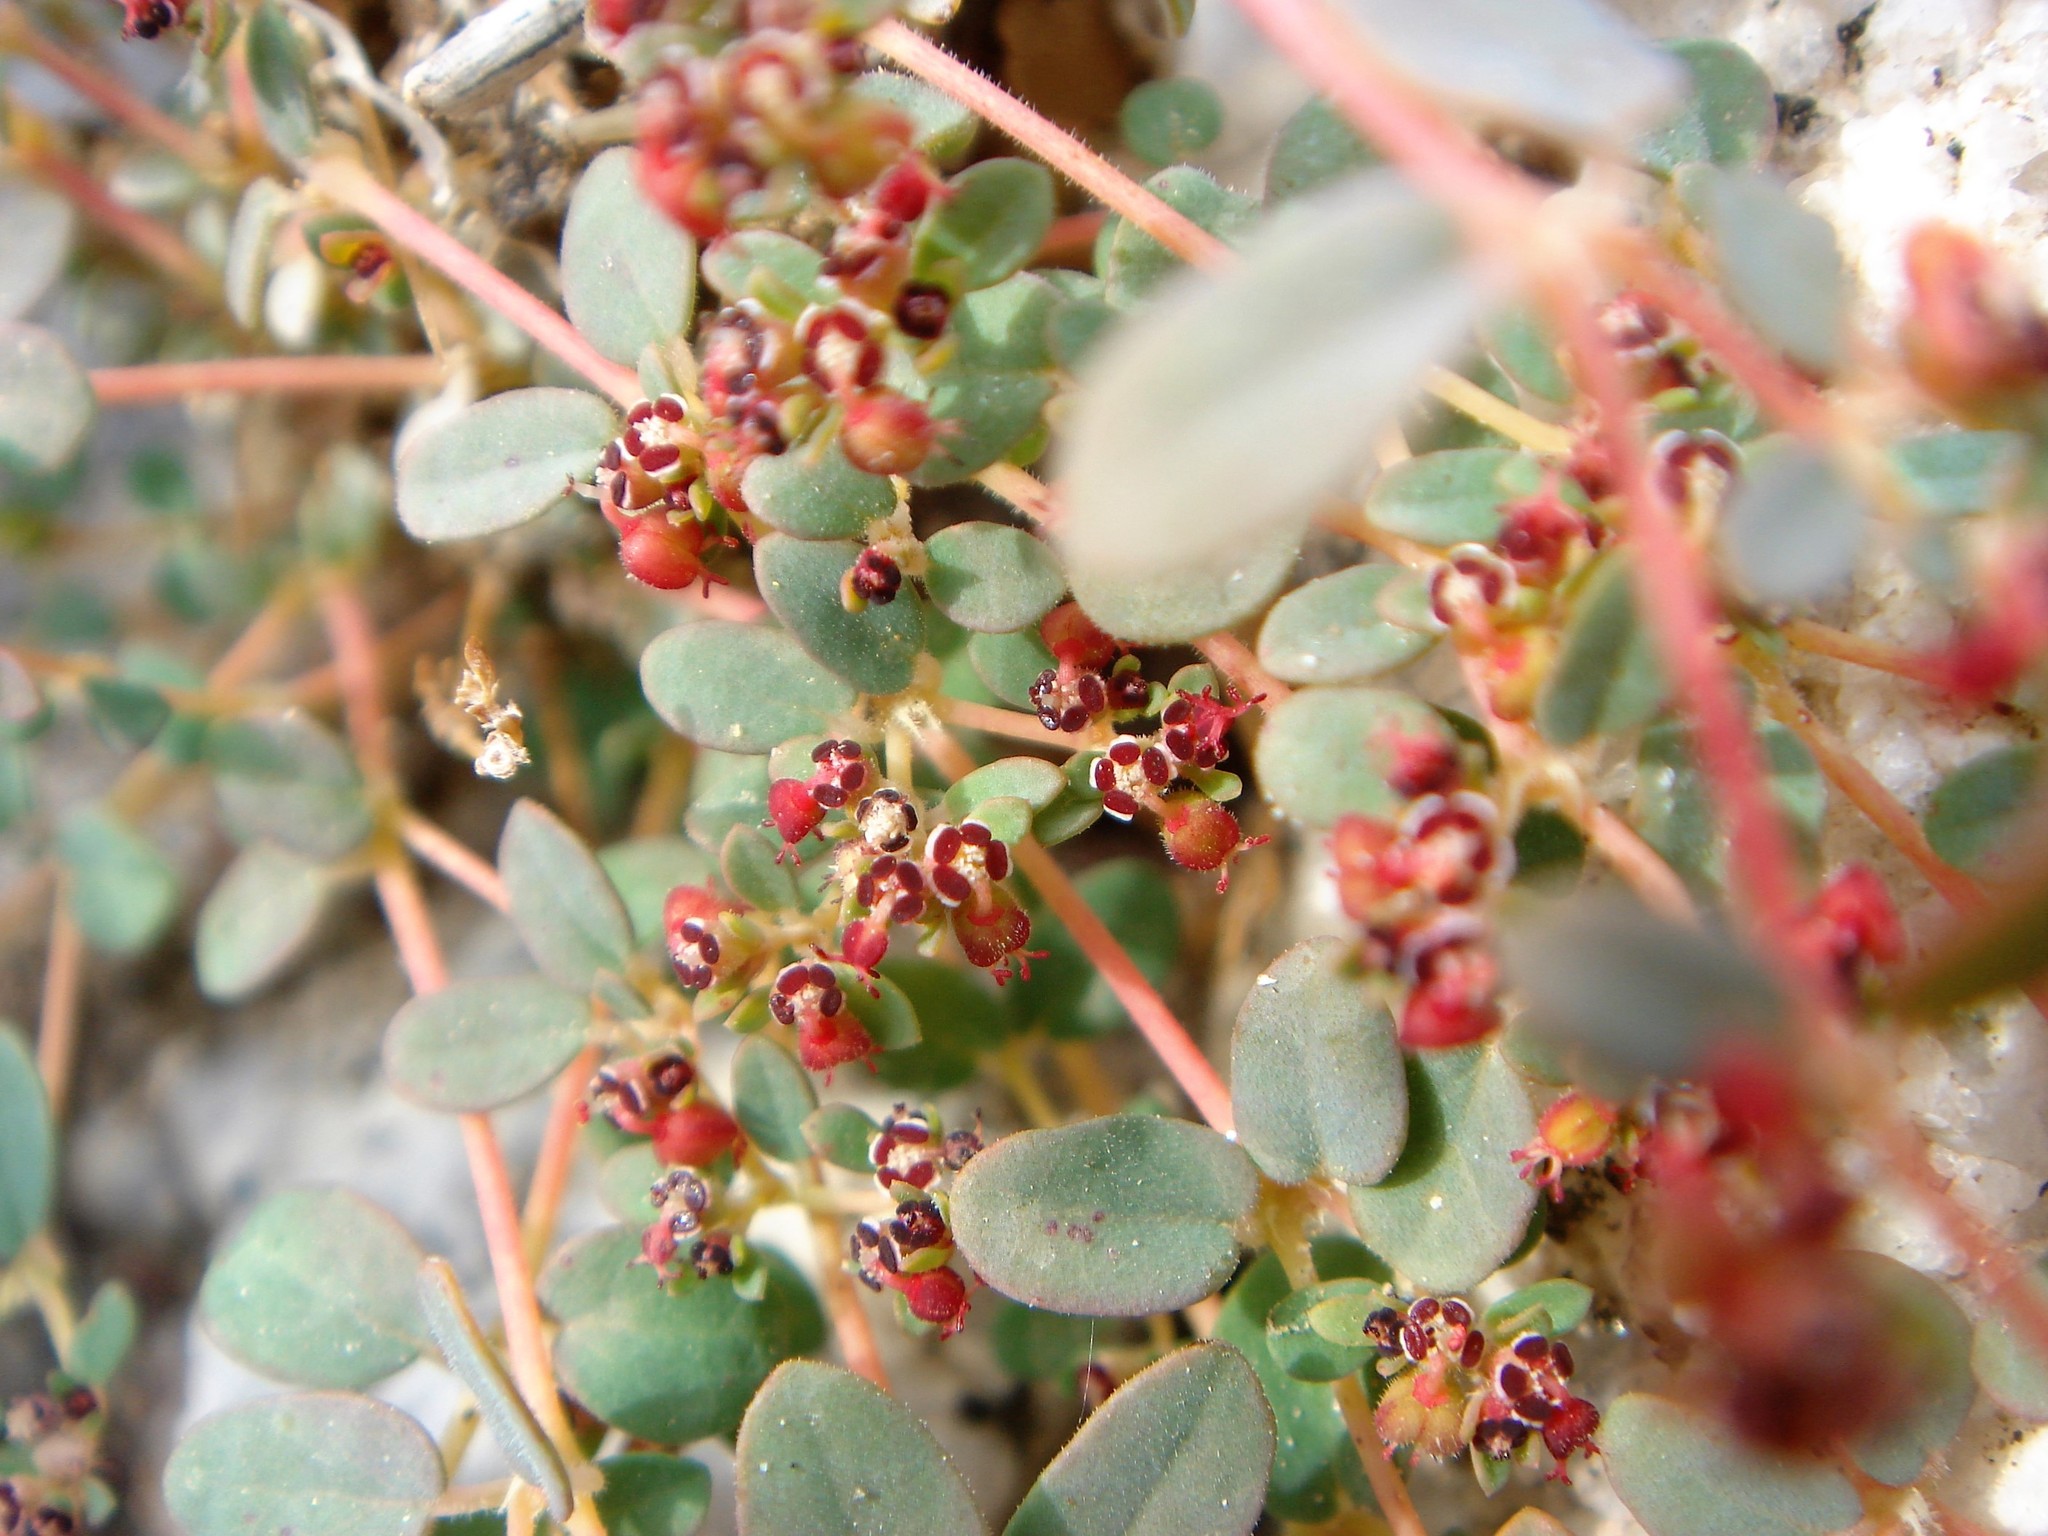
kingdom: Plantae
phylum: Tracheophyta
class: Magnoliopsida
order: Malpighiales
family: Euphorbiaceae
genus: Euphorbia
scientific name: Euphorbia polycarpa
